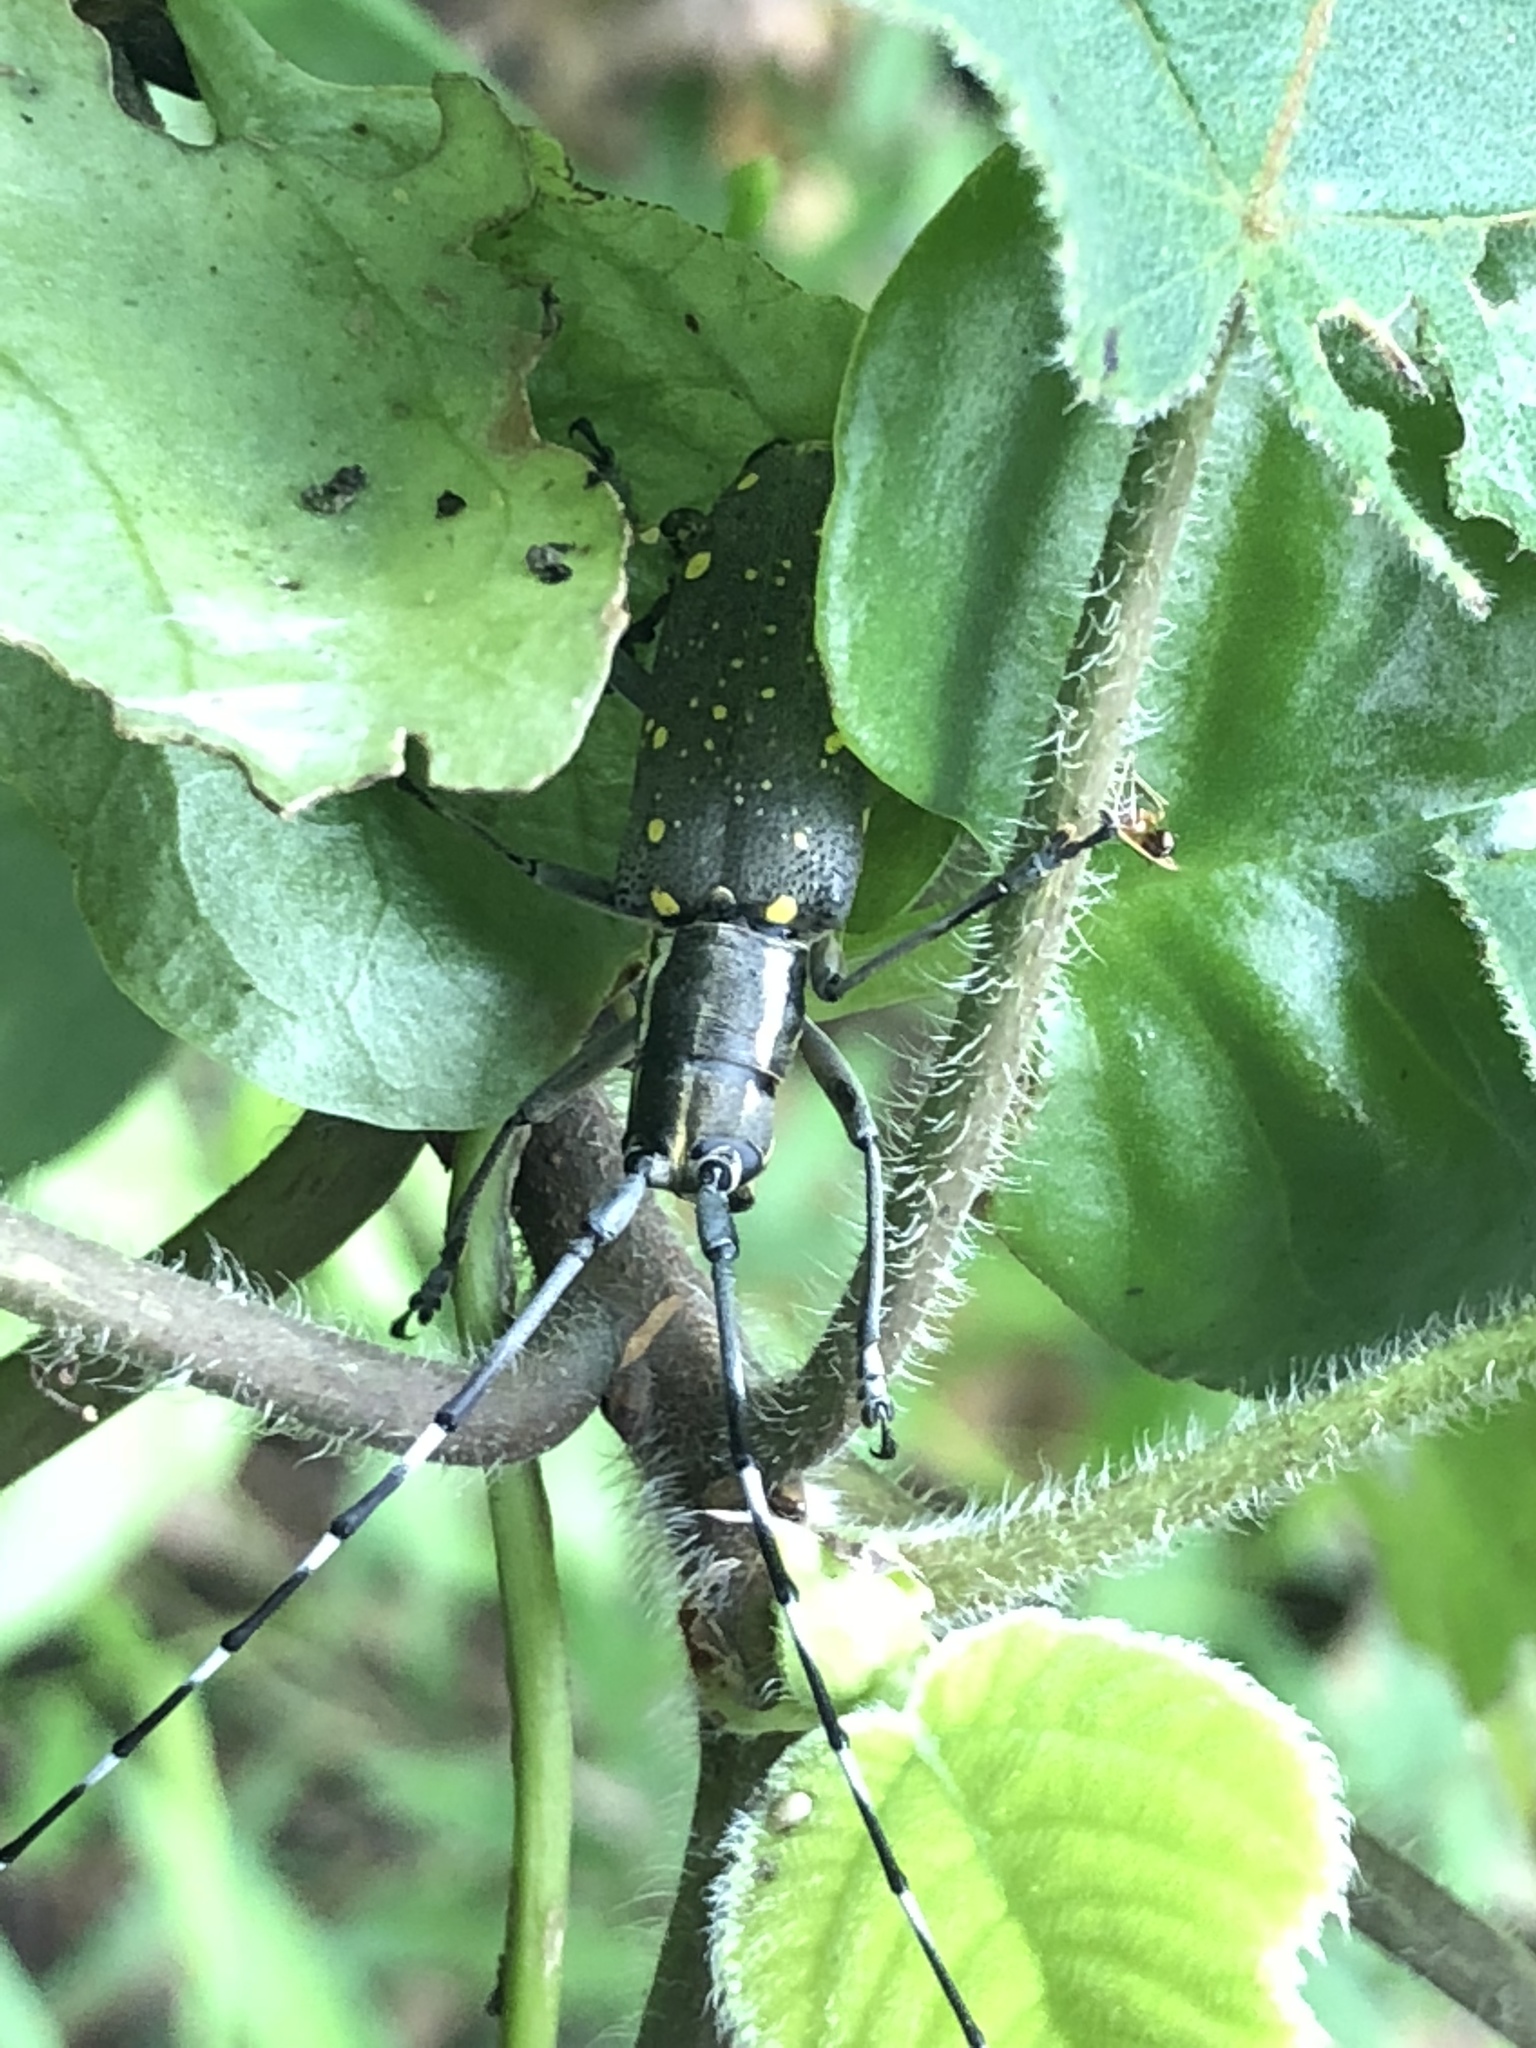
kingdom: Animalia
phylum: Arthropoda
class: Insecta
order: Coleoptera
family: Cerambycidae
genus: Psacothea
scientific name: Psacothea hilaris
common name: Yellow-spotted longicorn beetle
